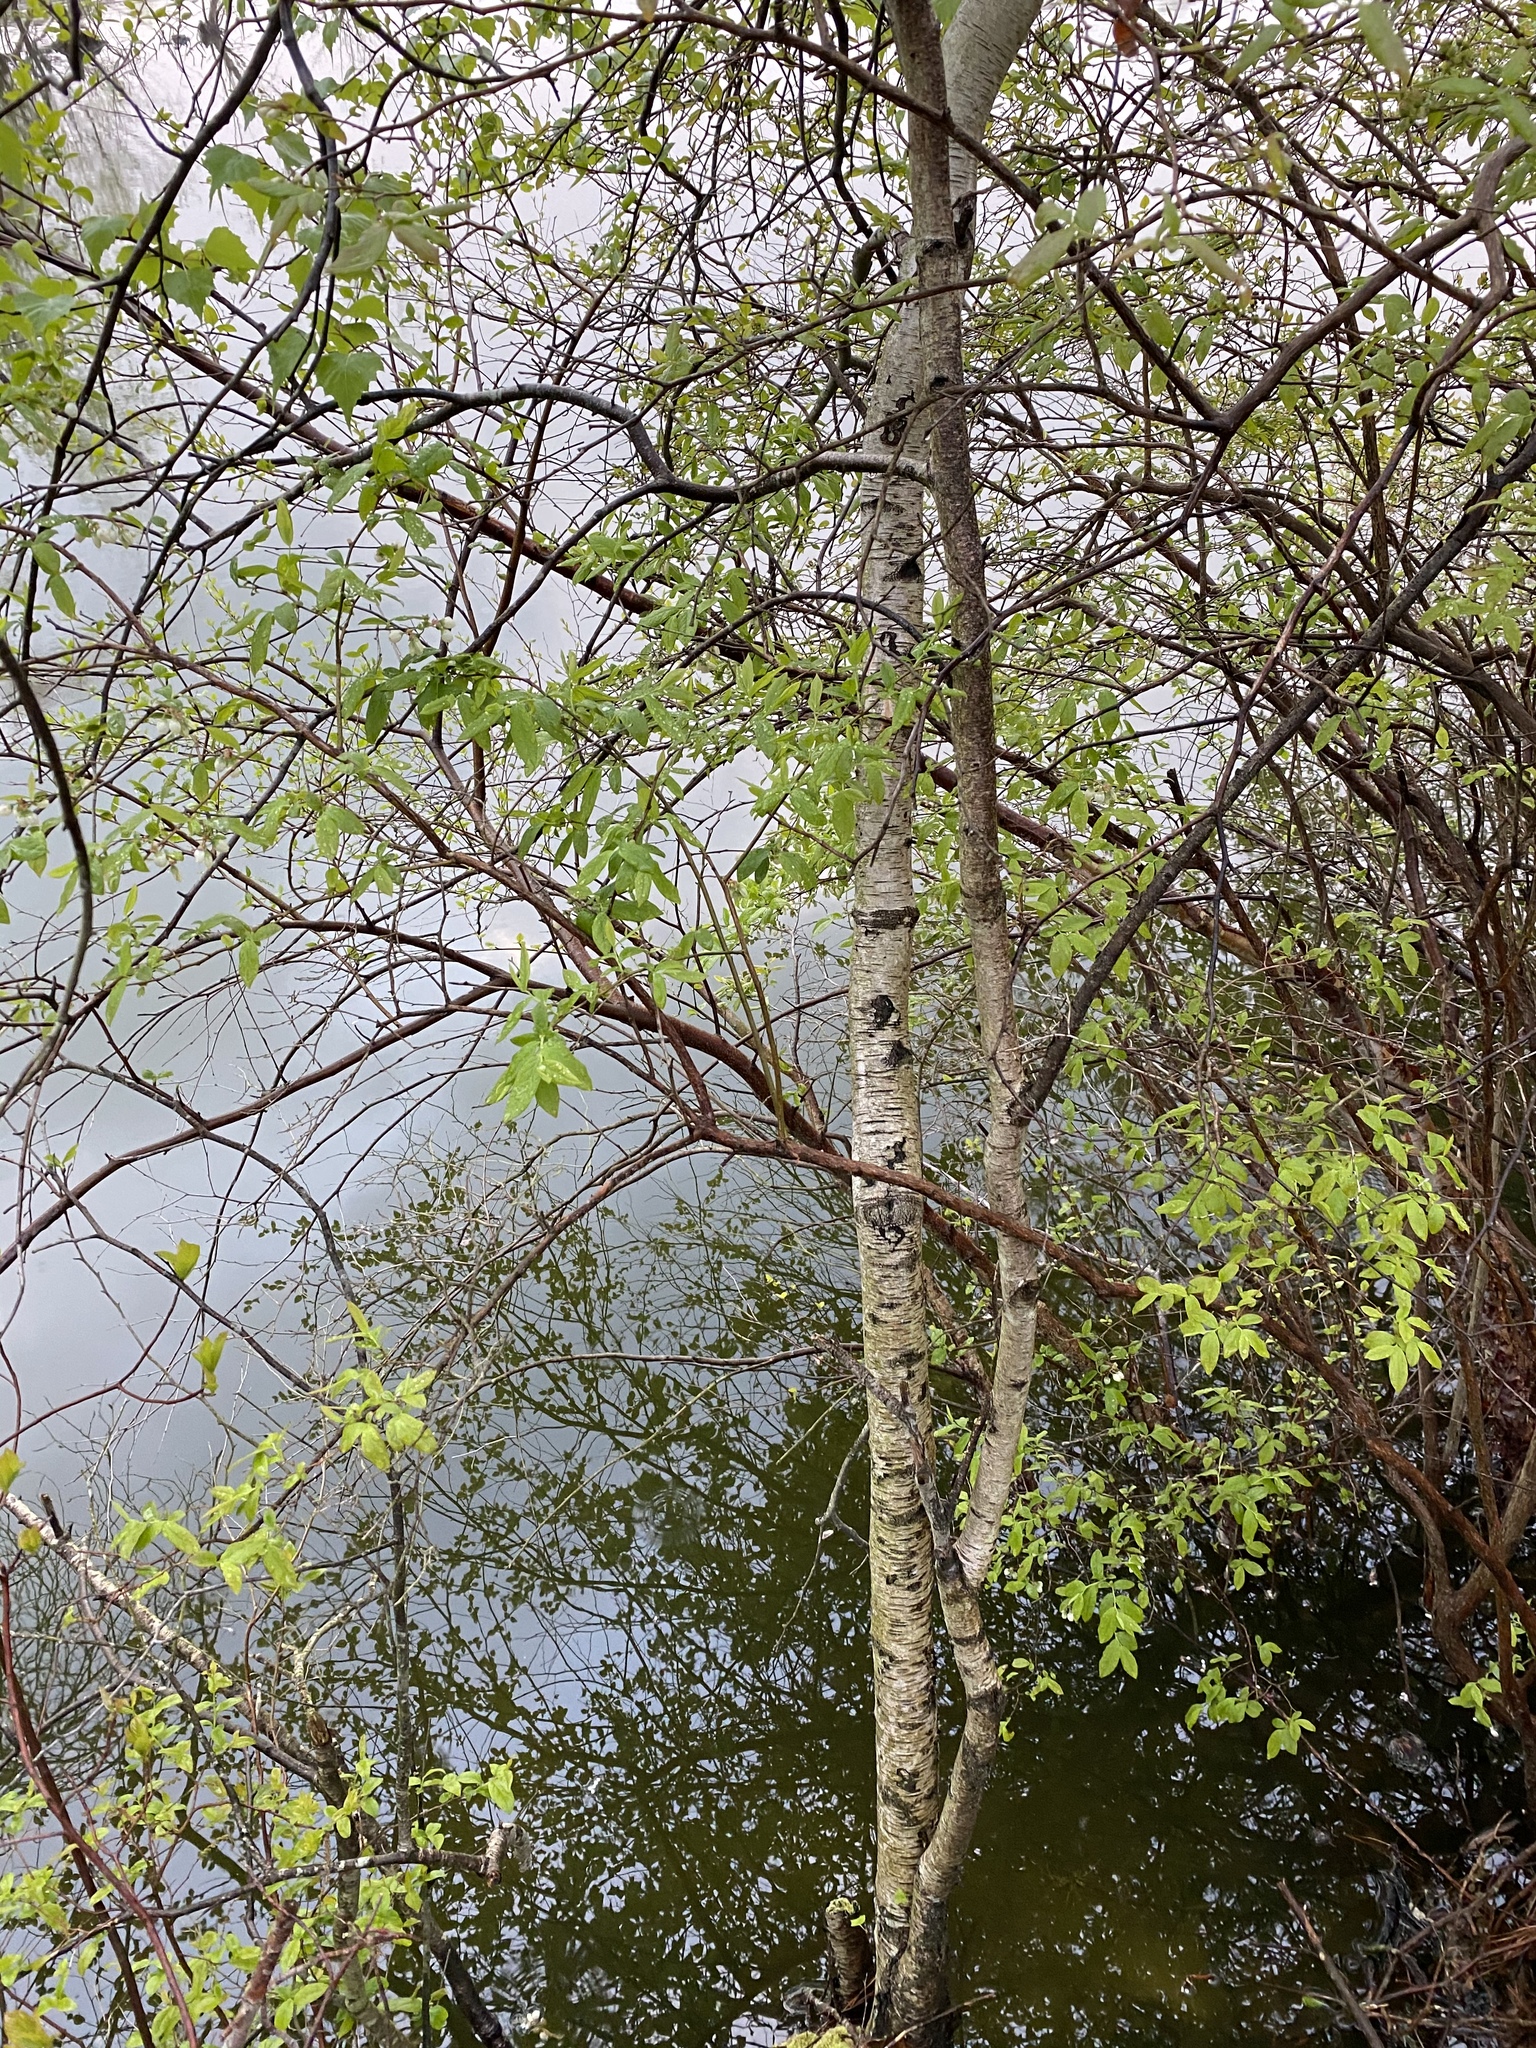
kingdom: Plantae
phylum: Tracheophyta
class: Magnoliopsida
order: Fagales
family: Betulaceae
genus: Betula
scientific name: Betula populifolia
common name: Fire birch
